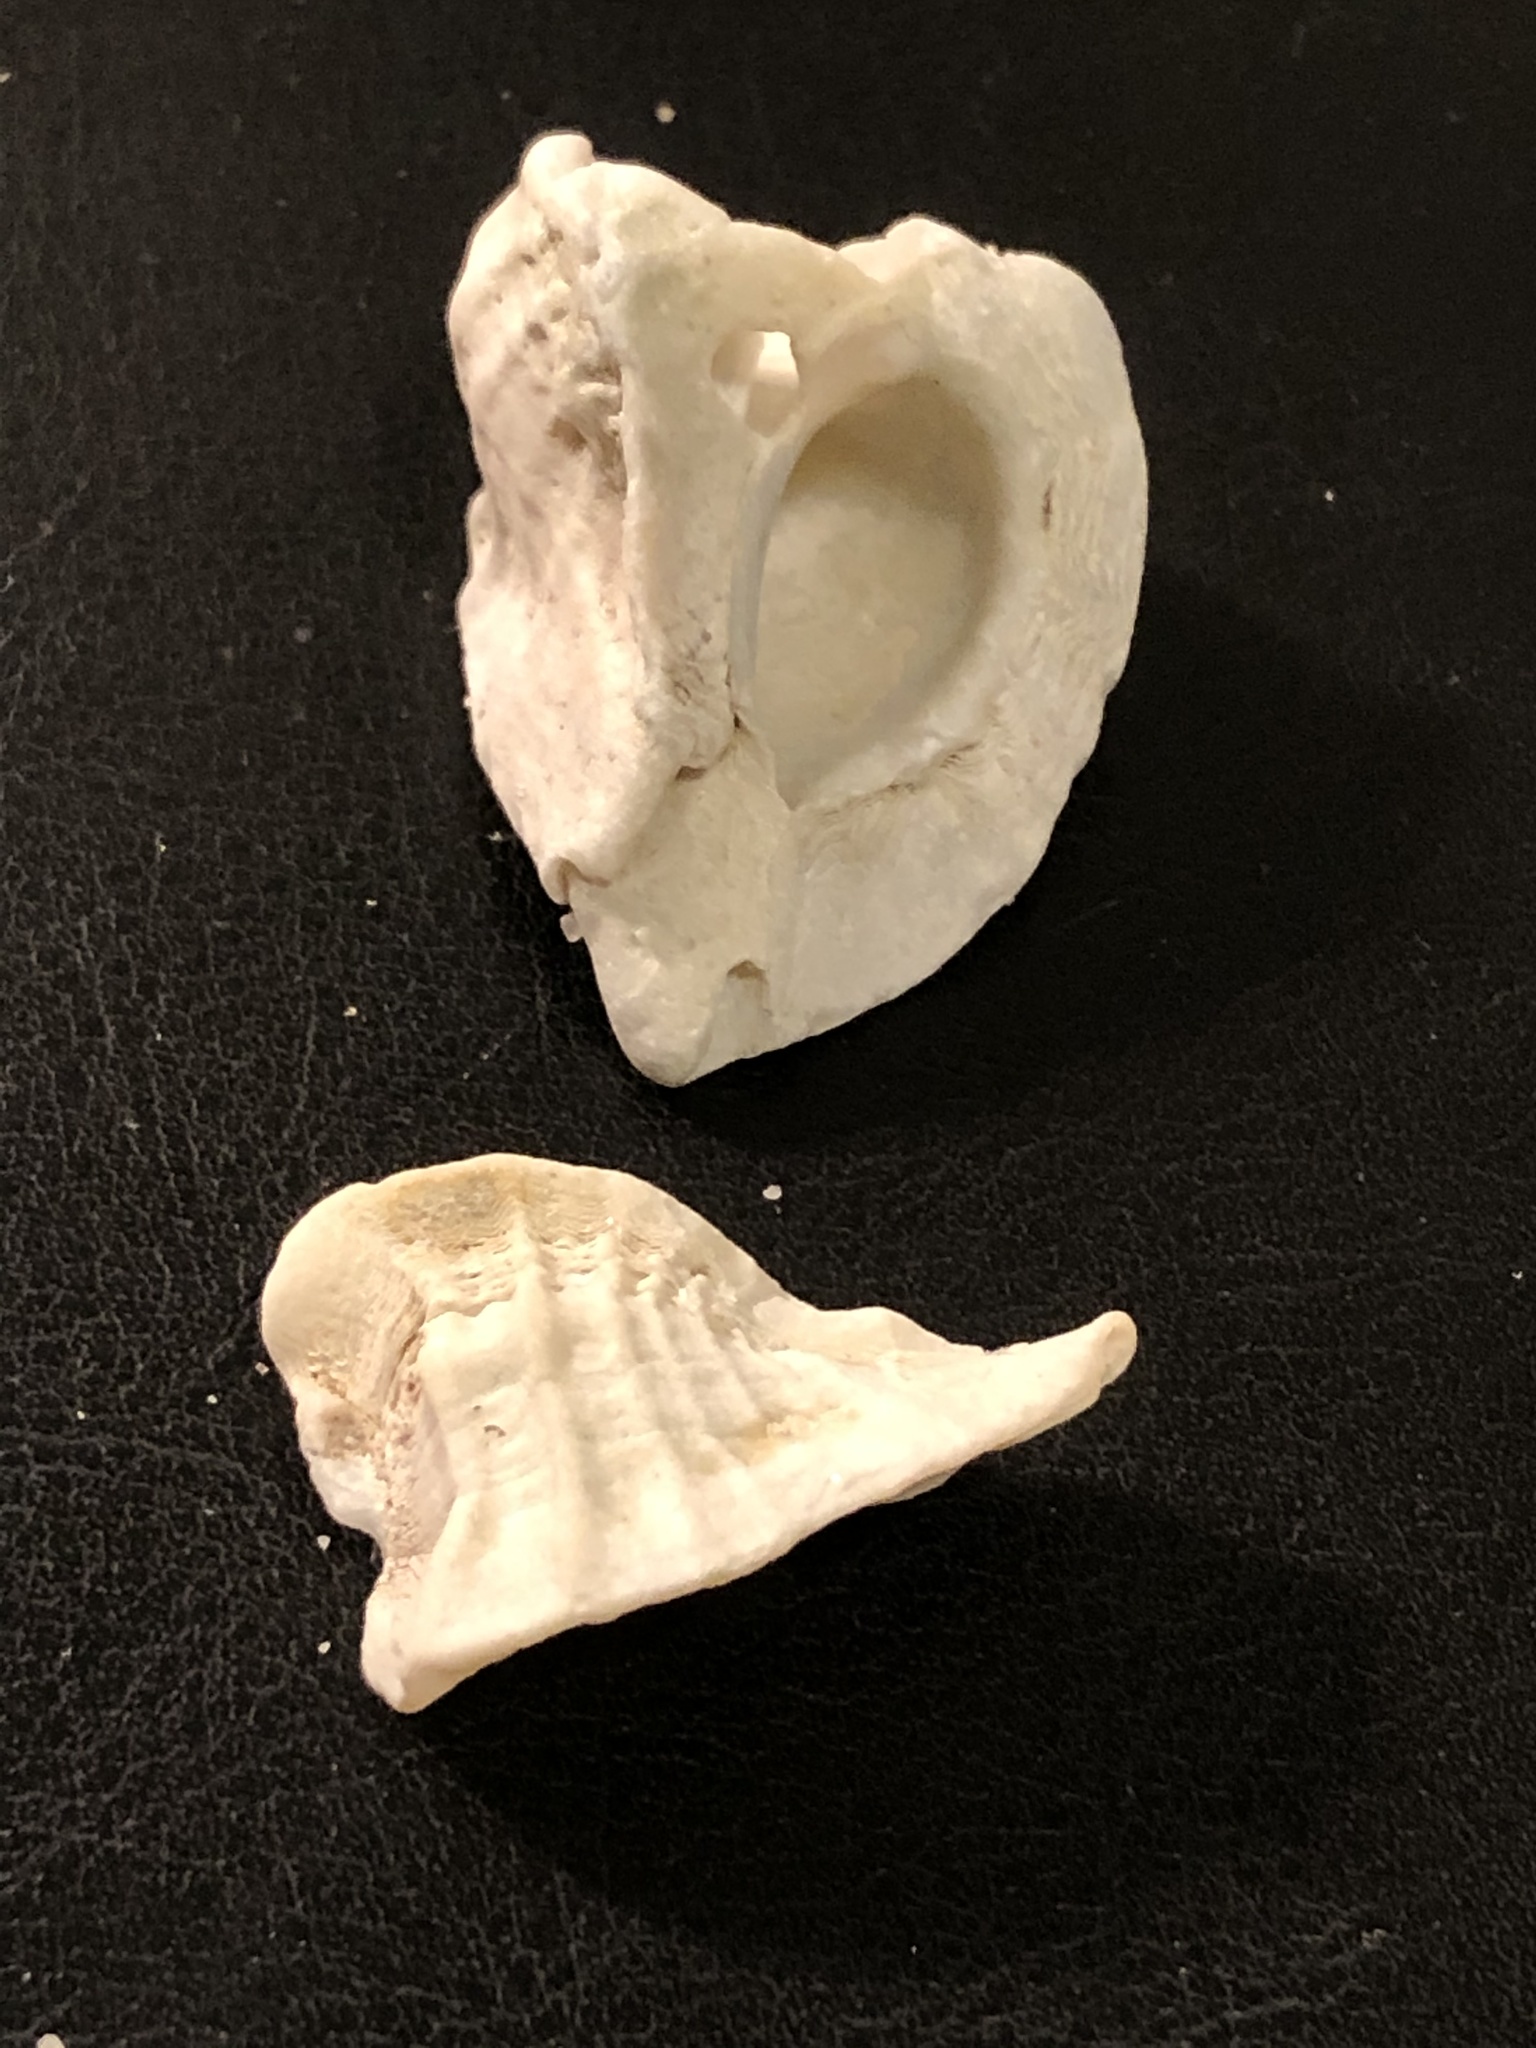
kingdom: Animalia
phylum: Mollusca
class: Gastropoda
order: Neogastropoda
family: Muricidae
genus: Ceratostoma
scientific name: Ceratostoma foliatum
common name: Foliate thorn purpura
